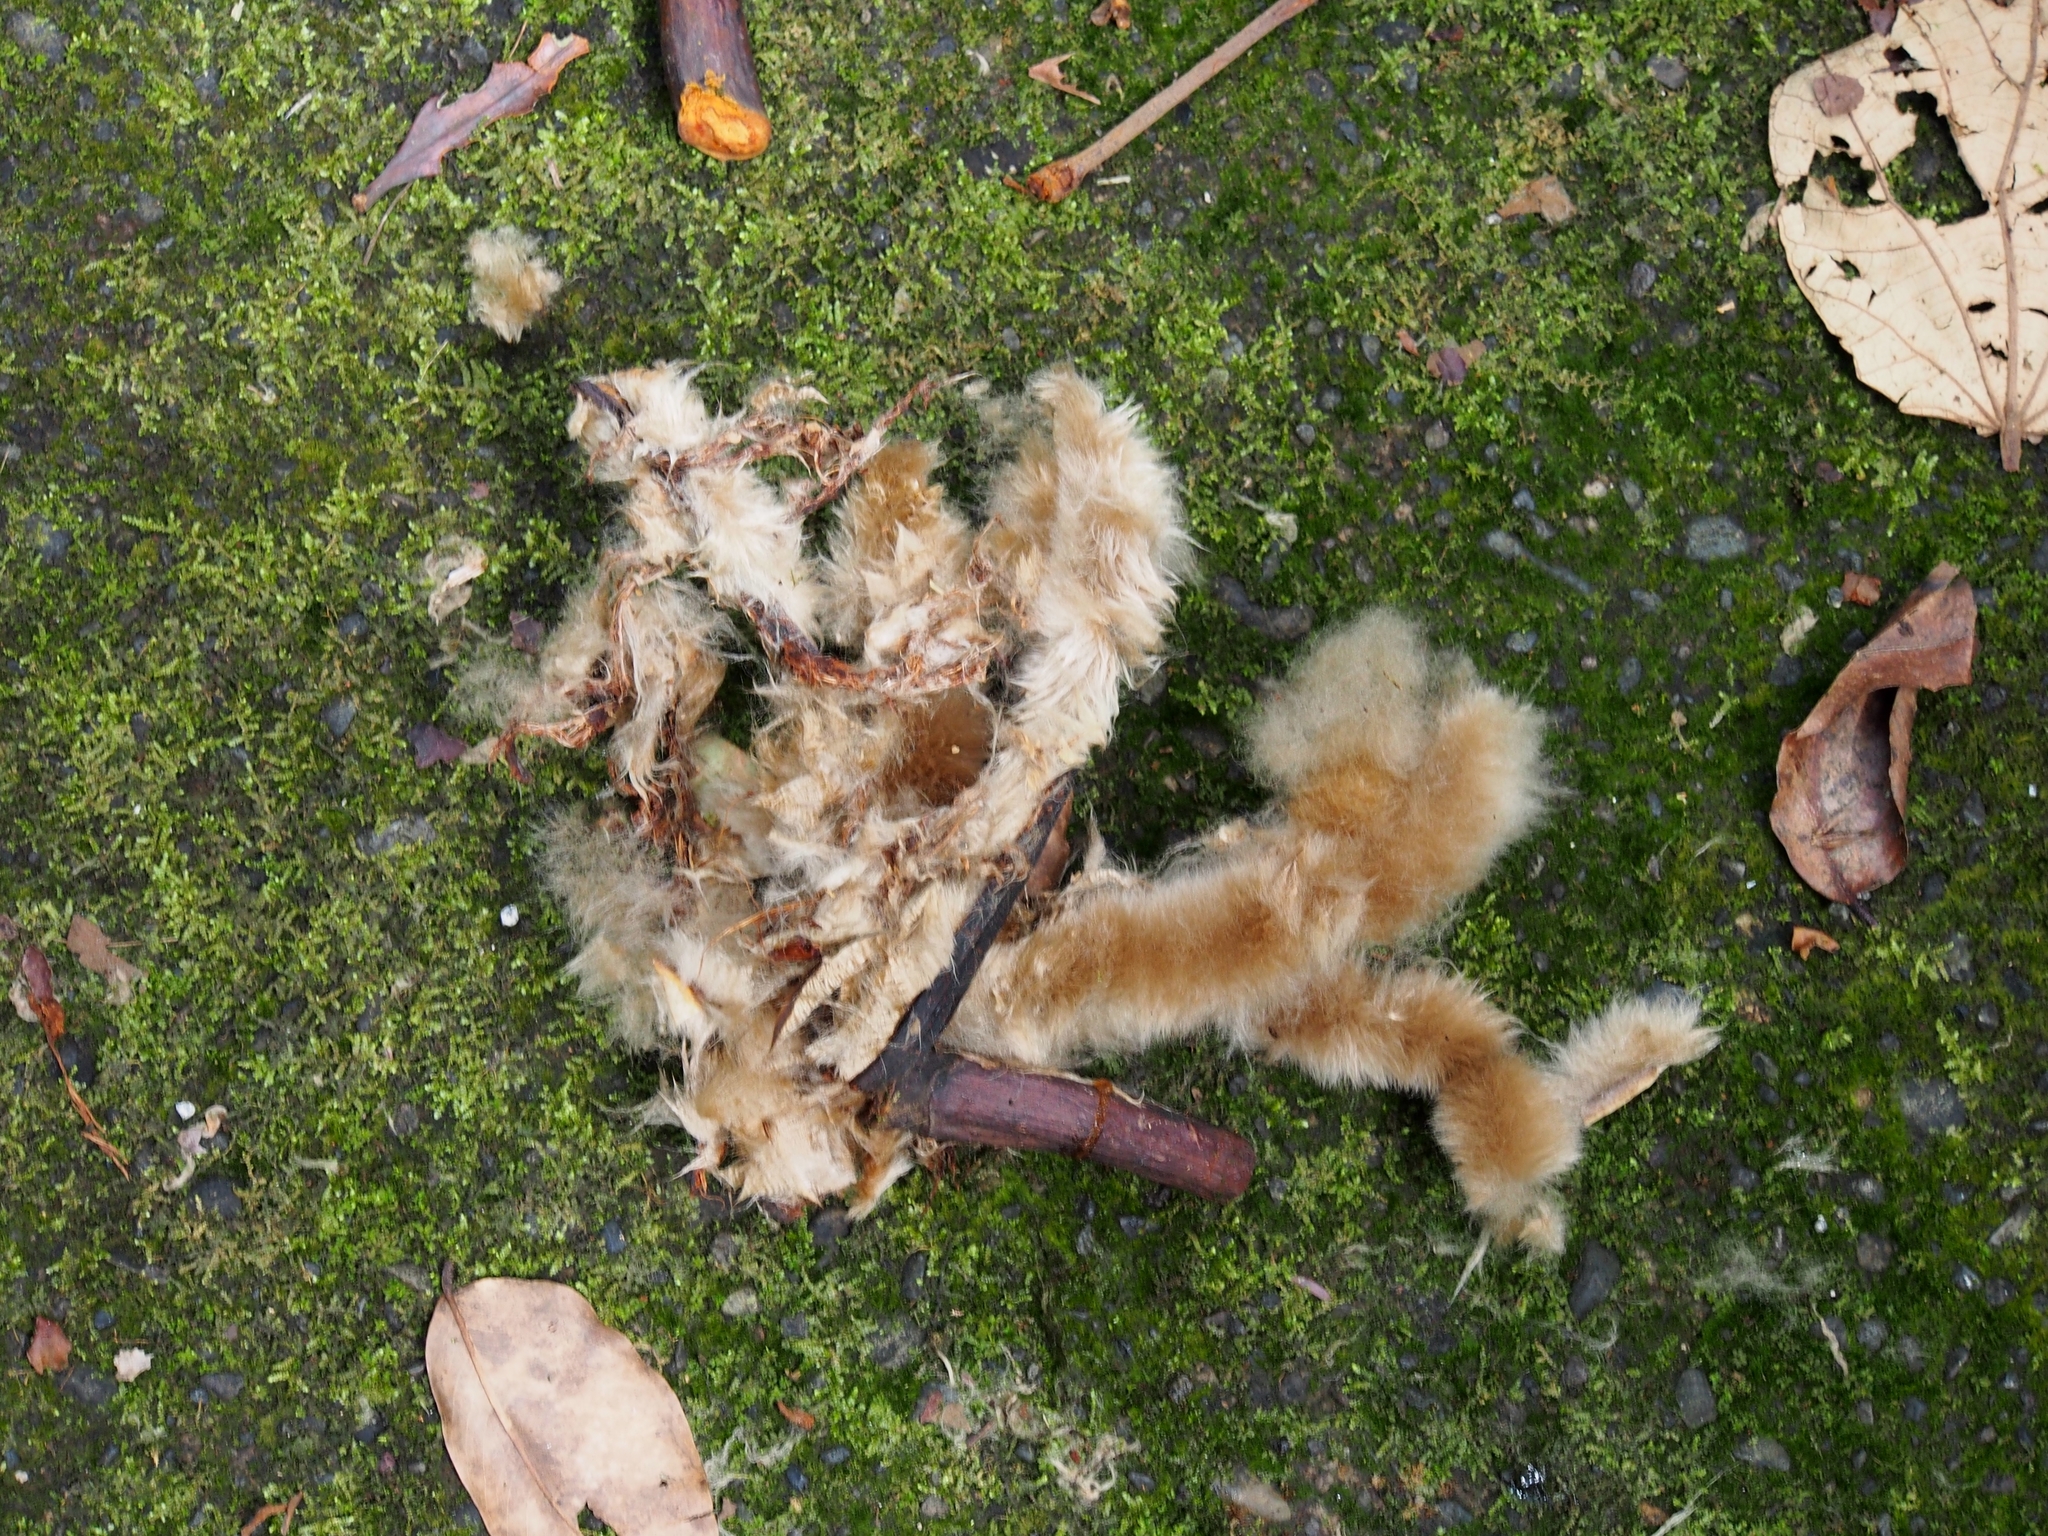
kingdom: Plantae
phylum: Tracheophyta
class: Magnoliopsida
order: Malvales
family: Malvaceae
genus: Ceiba
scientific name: Ceiba pentandra
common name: Kapok
